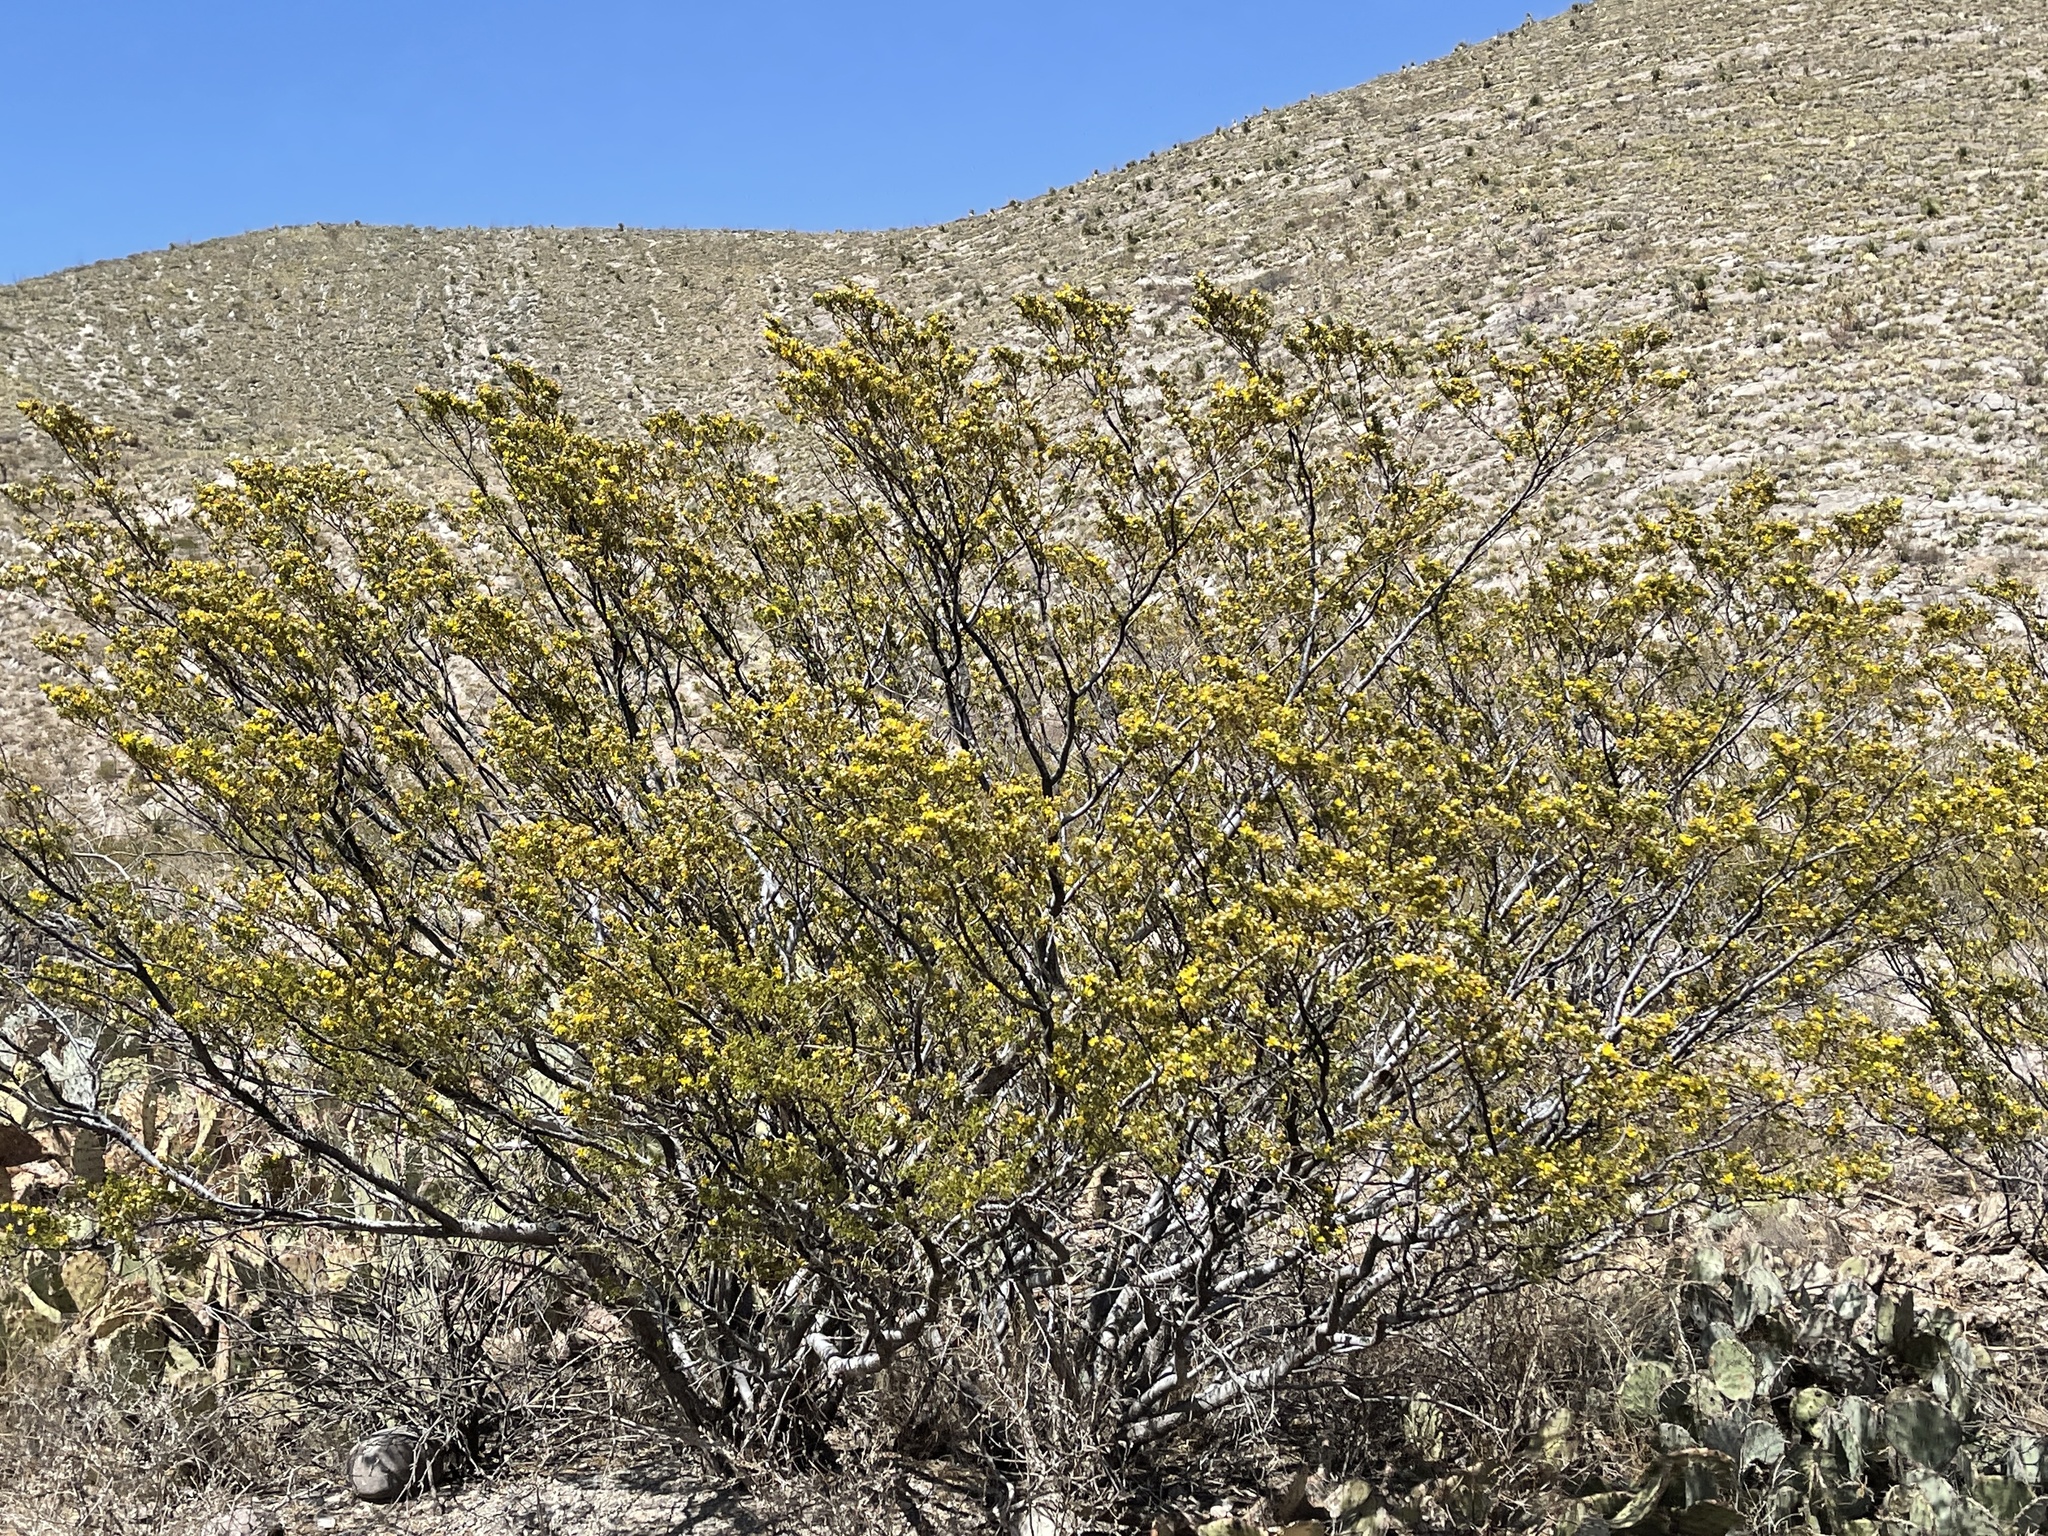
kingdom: Plantae
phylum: Tracheophyta
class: Magnoliopsida
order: Zygophyllales
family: Zygophyllaceae
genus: Larrea
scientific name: Larrea tridentata
